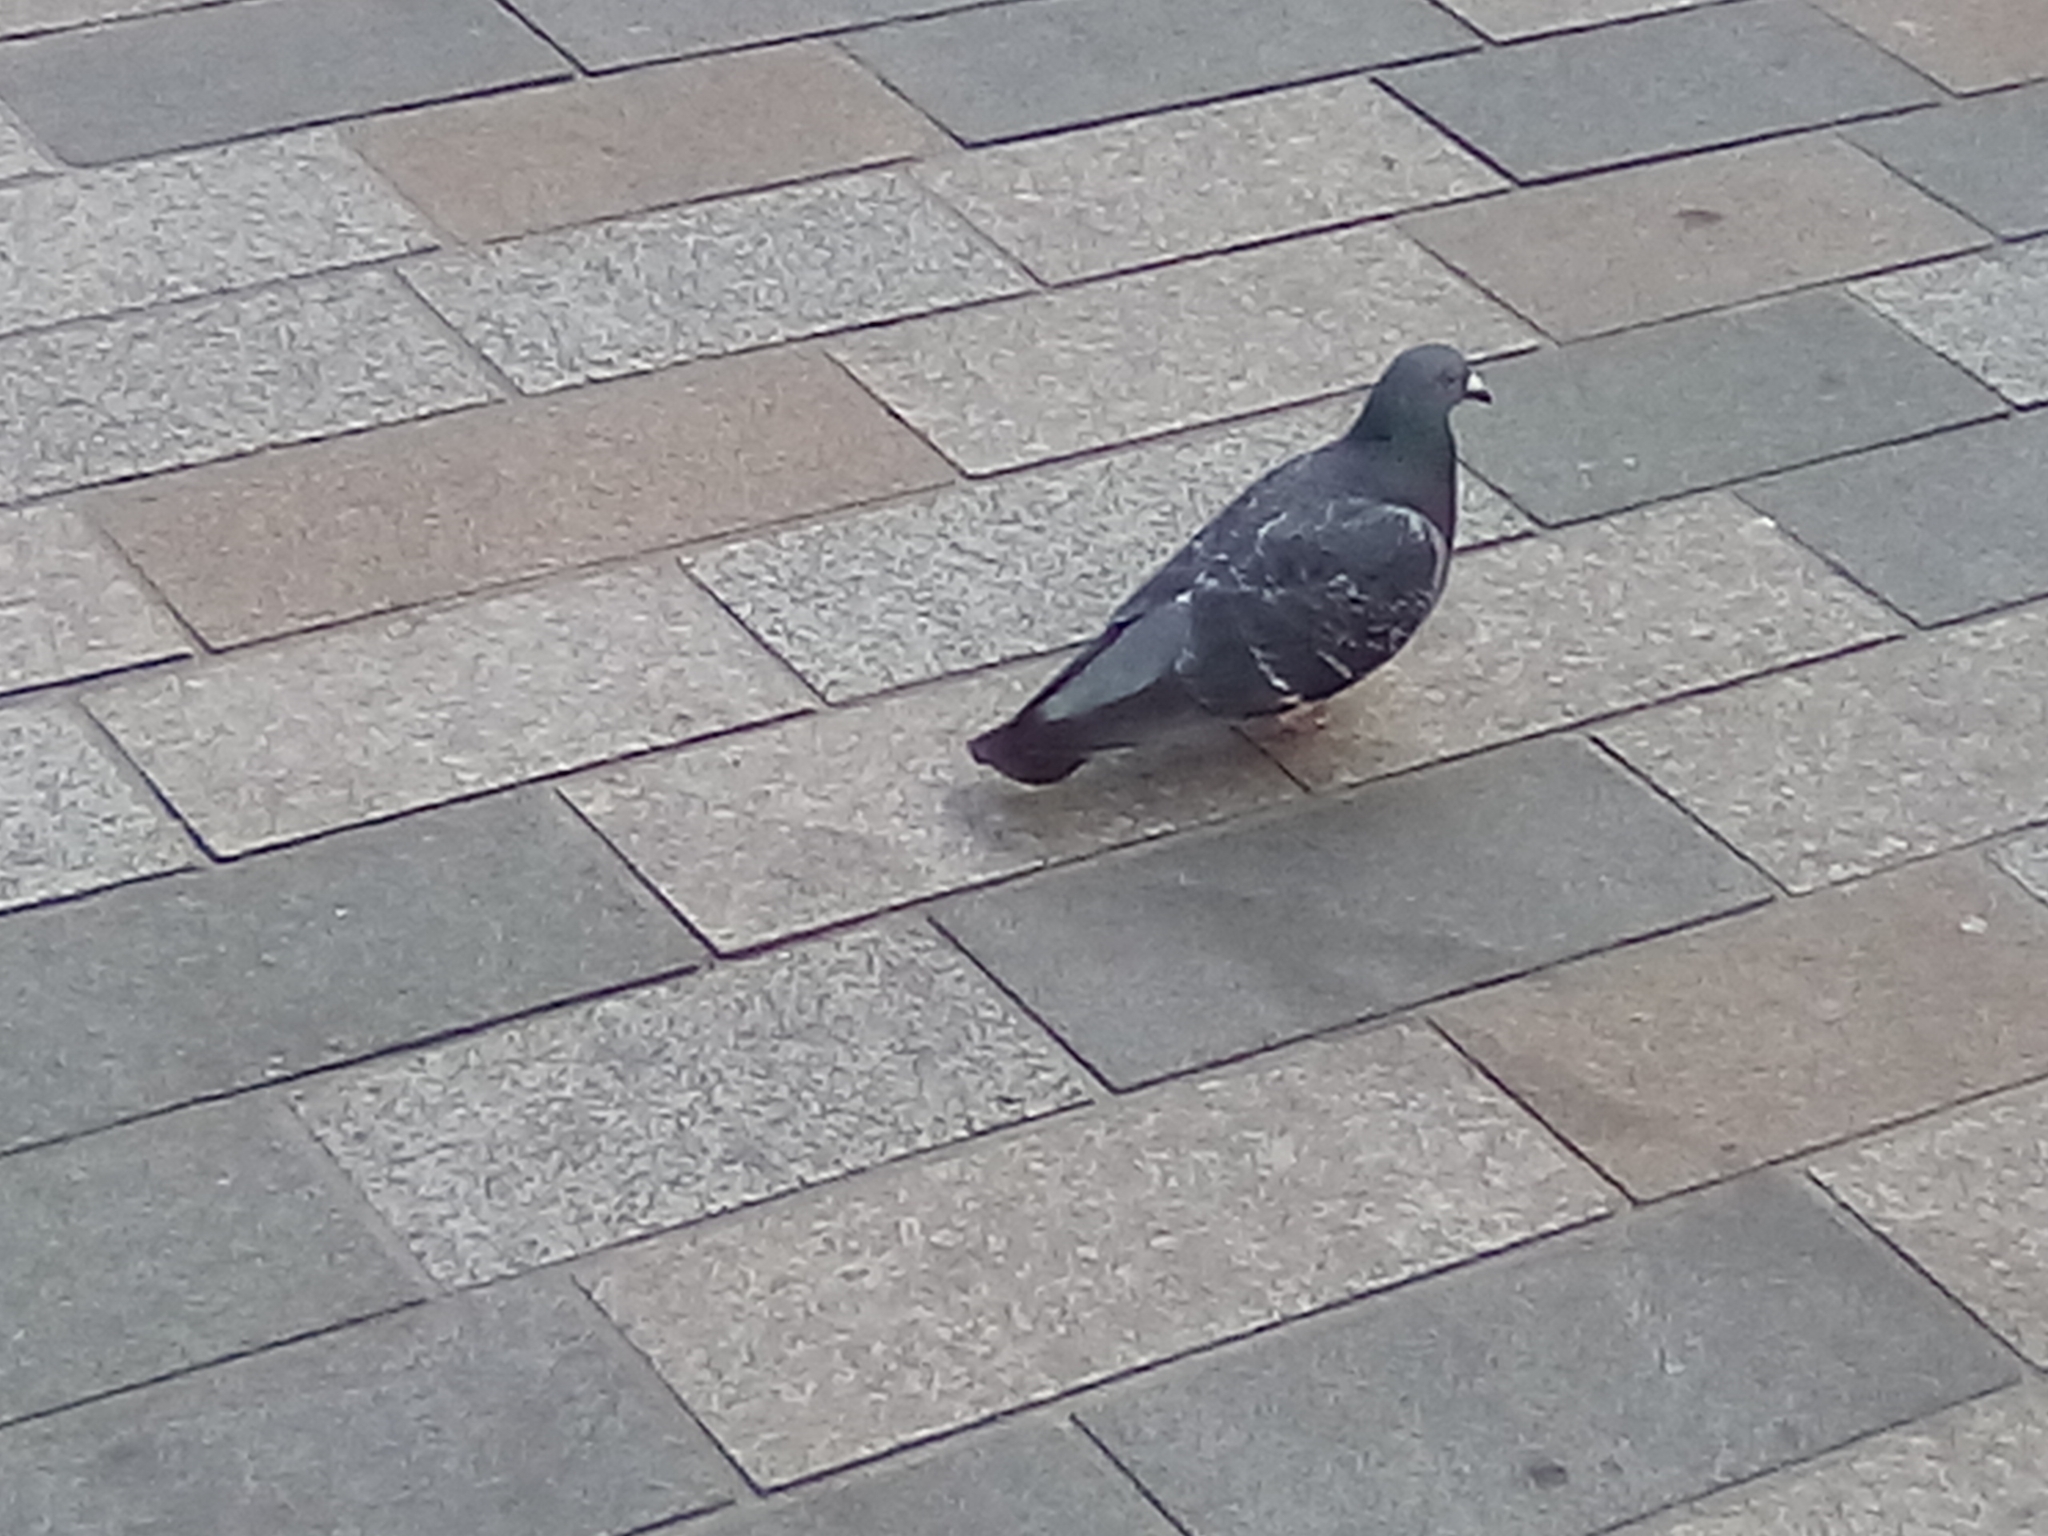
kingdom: Animalia
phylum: Chordata
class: Aves
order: Columbiformes
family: Columbidae
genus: Columba
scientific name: Columba livia
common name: Rock pigeon
